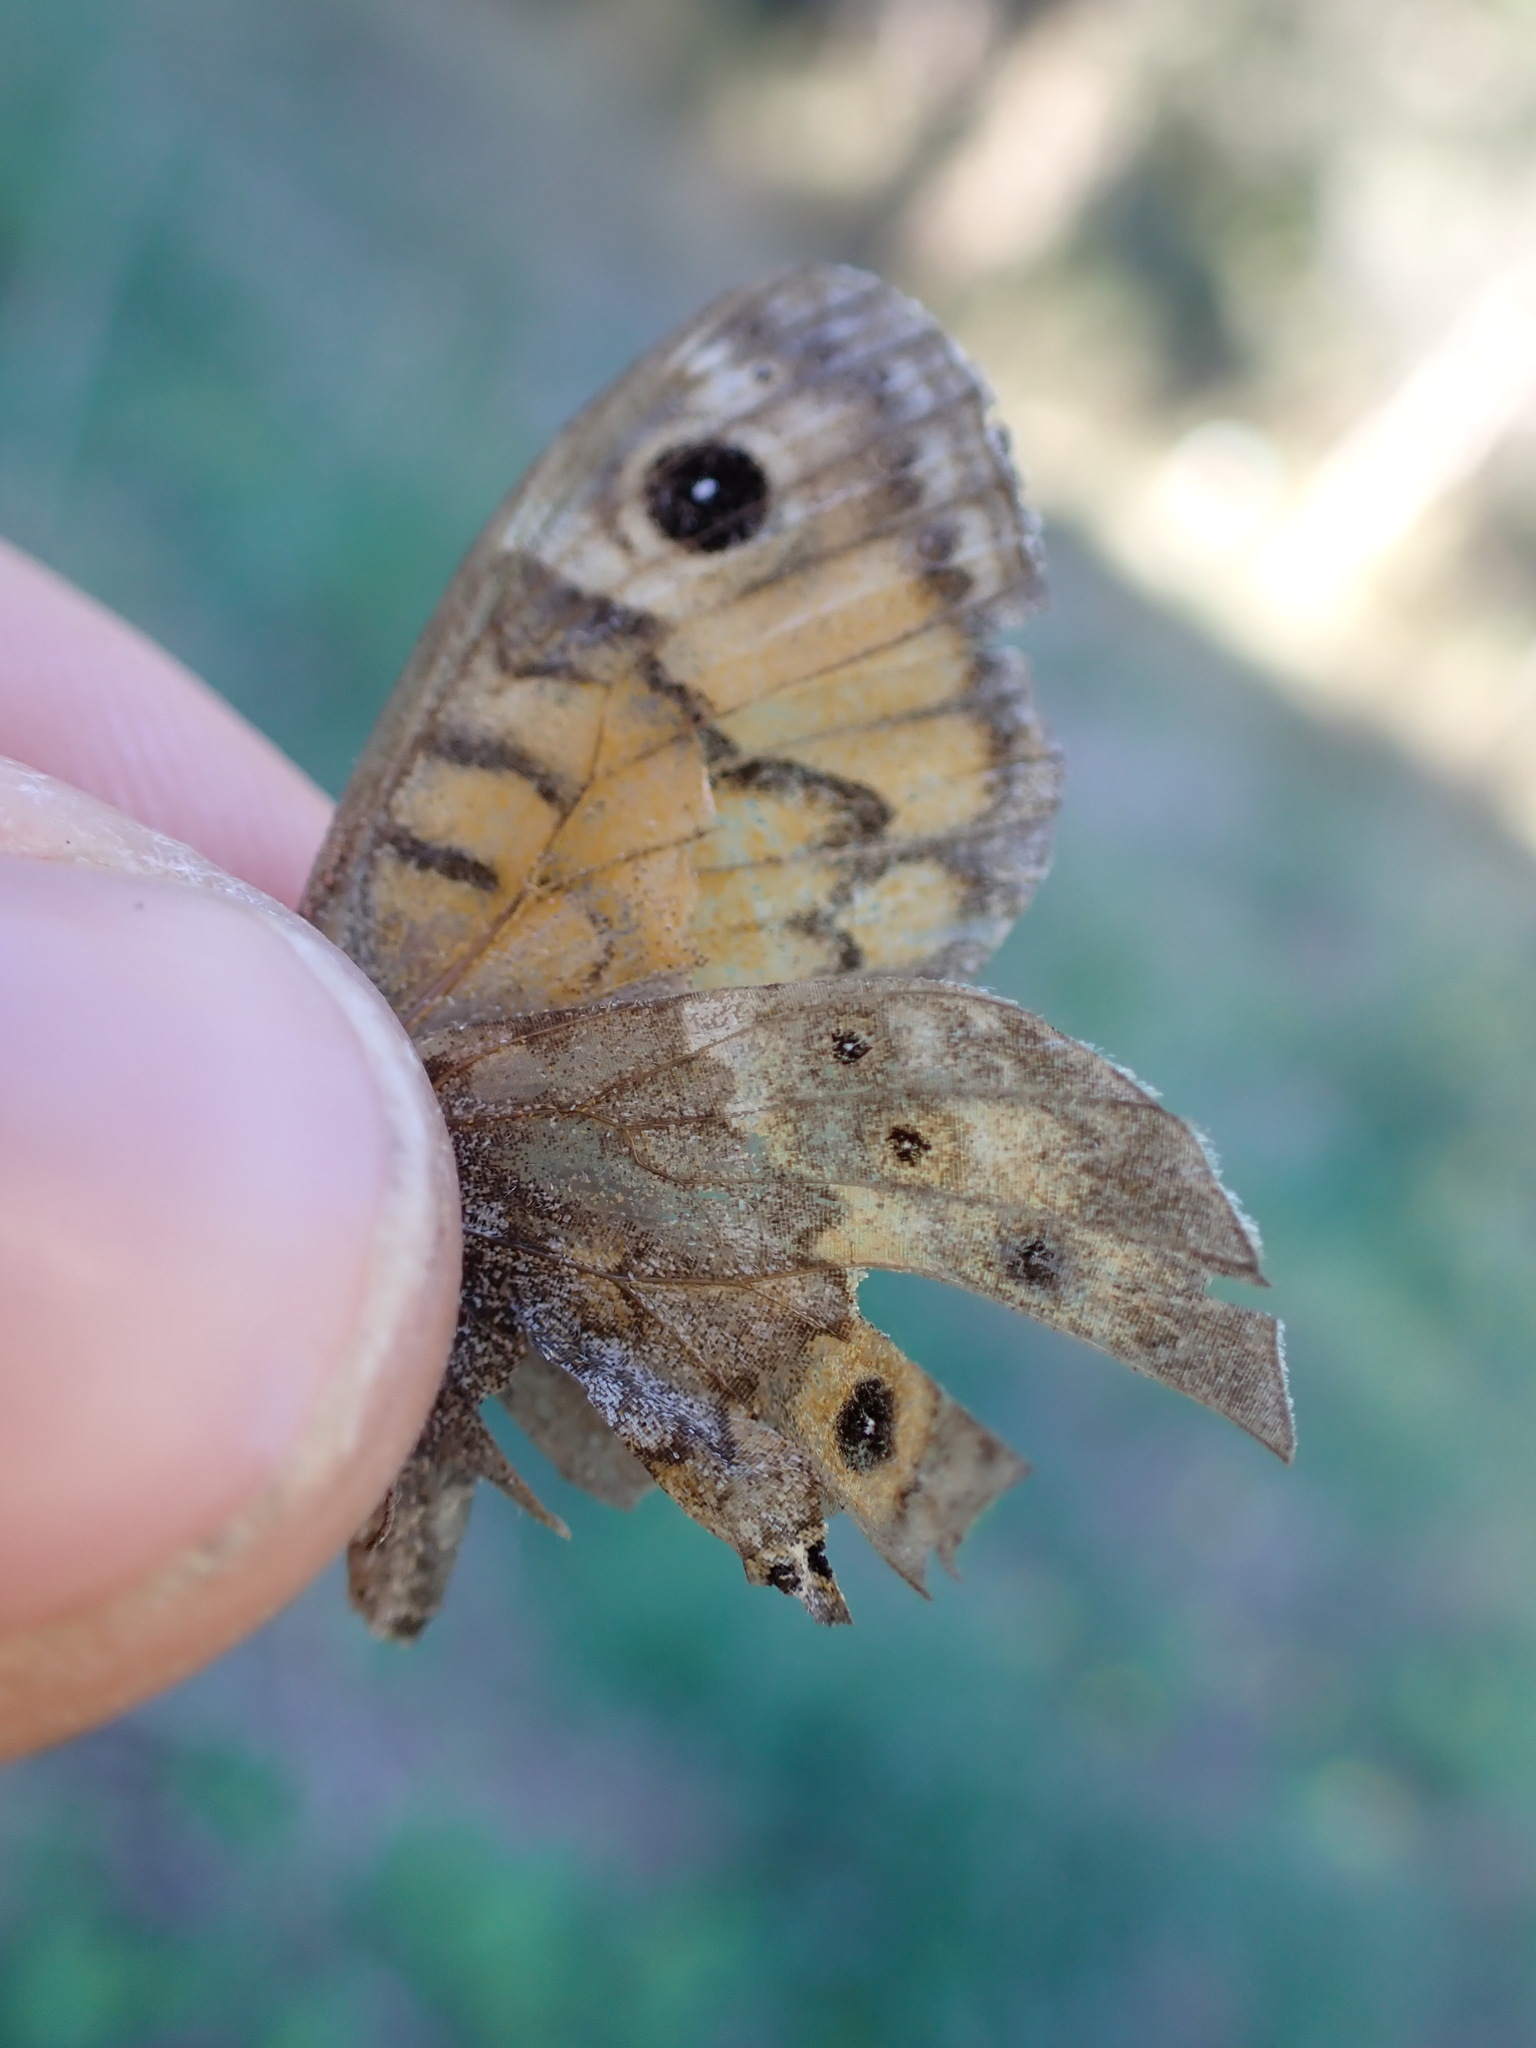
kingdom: Animalia
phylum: Arthropoda
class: Insecta
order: Lepidoptera
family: Nymphalidae
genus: Pararge
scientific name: Pararge Lasiommata megera
